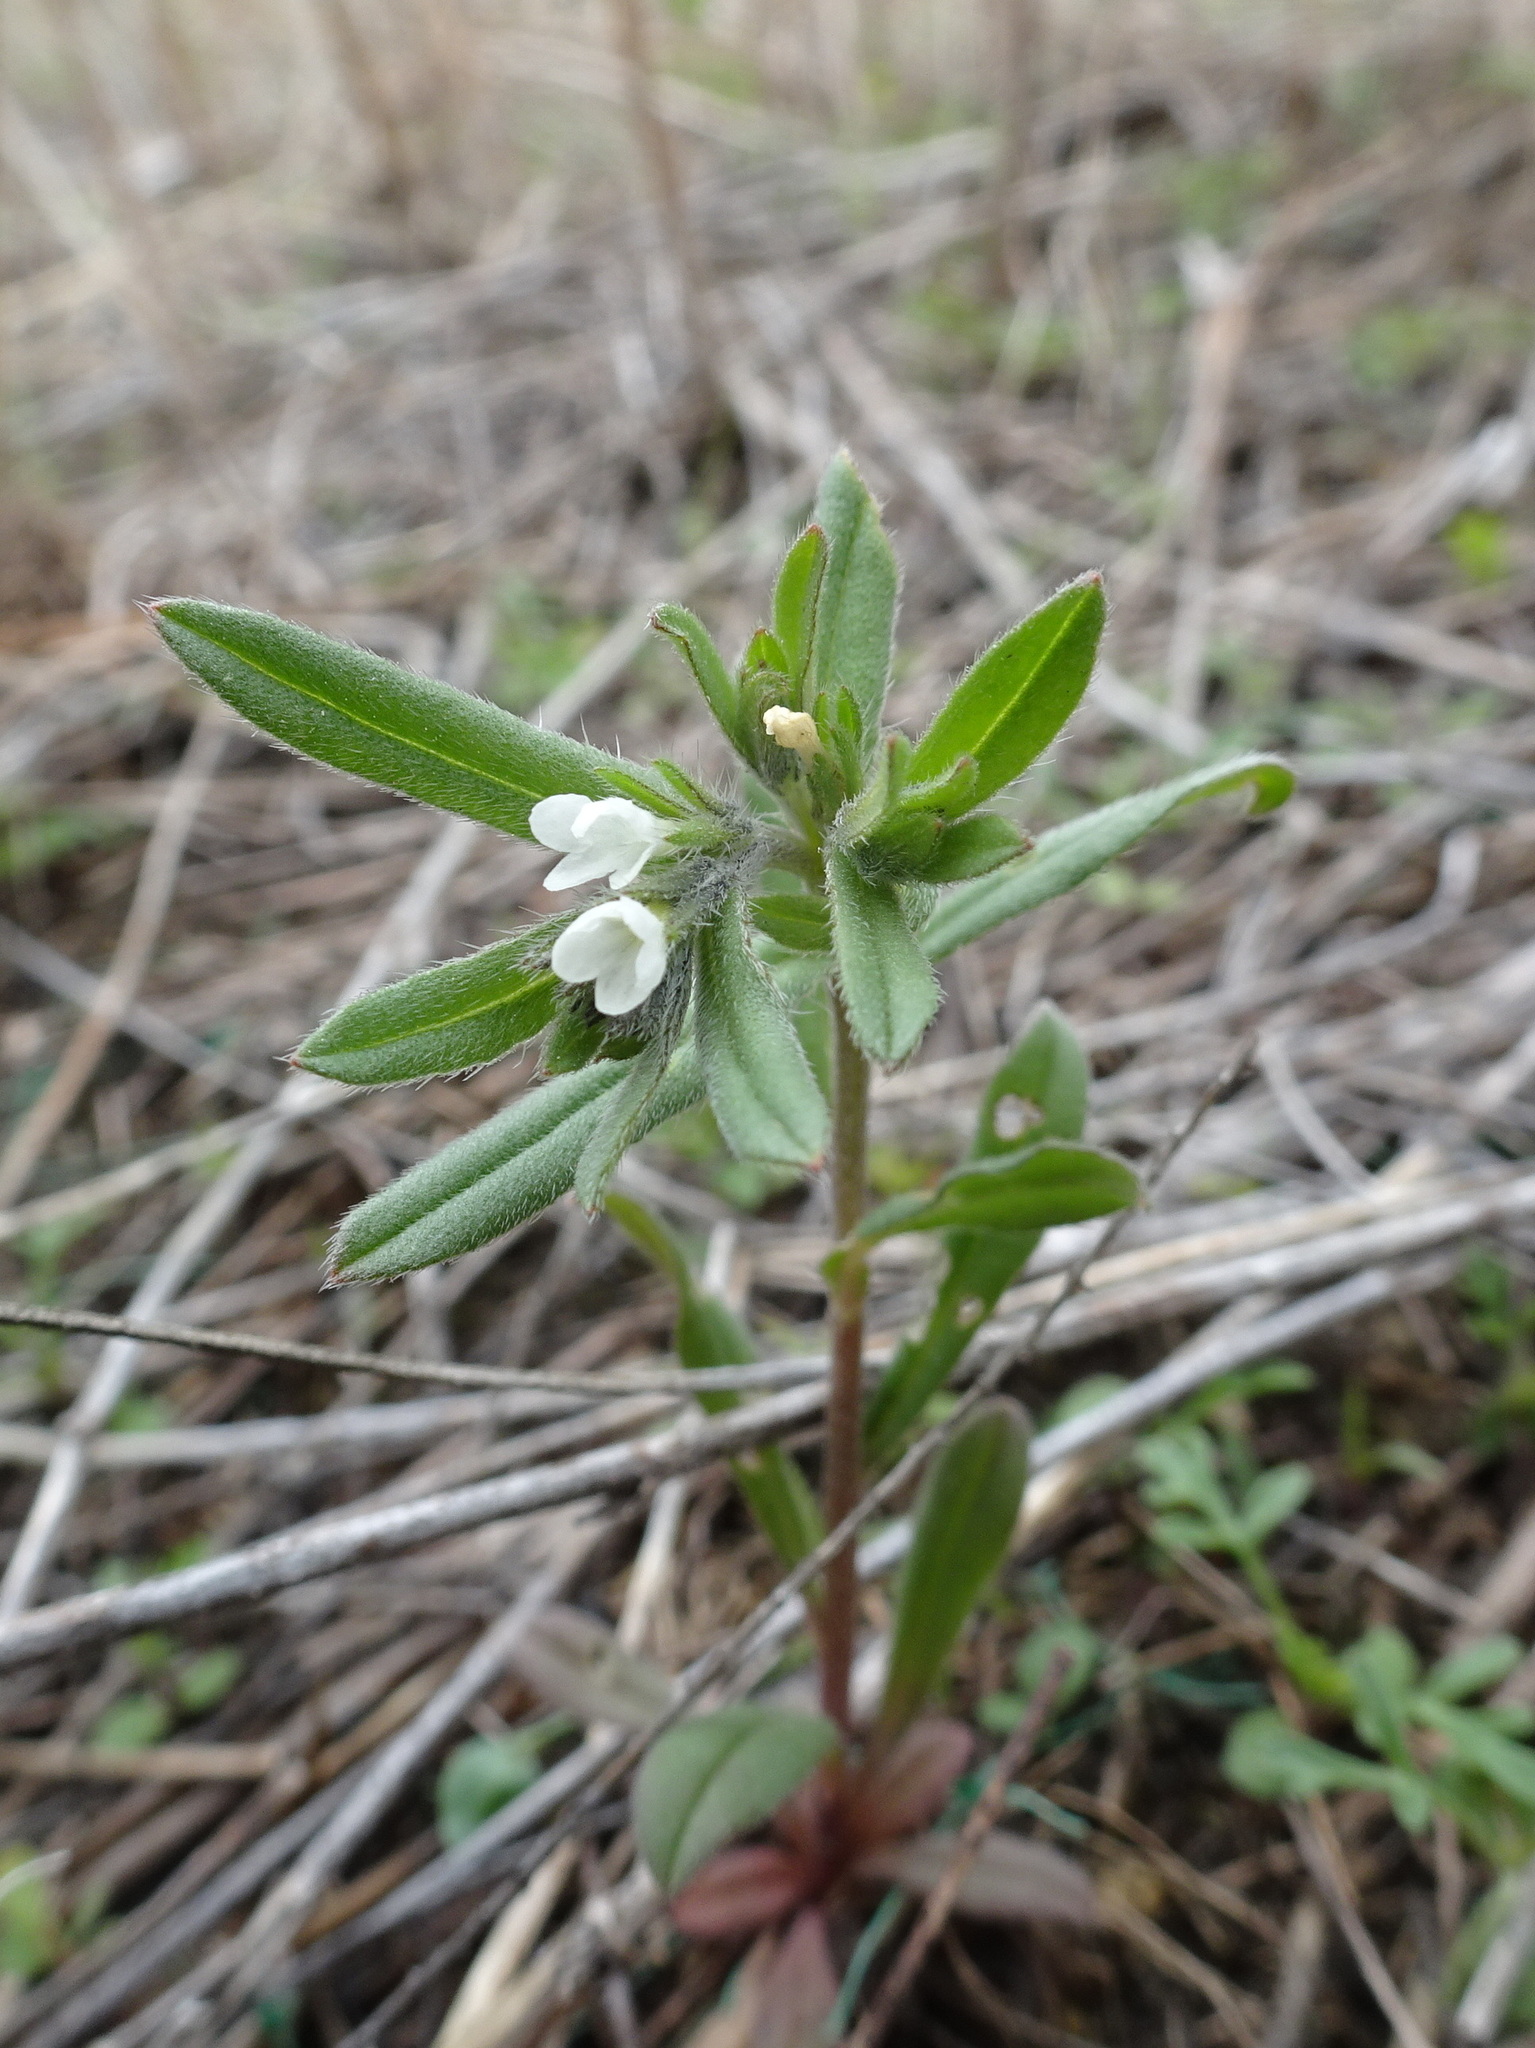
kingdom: Plantae
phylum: Tracheophyta
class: Magnoliopsida
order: Boraginales
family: Boraginaceae
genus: Buglossoides
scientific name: Buglossoides arvensis
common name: Corn gromwell
